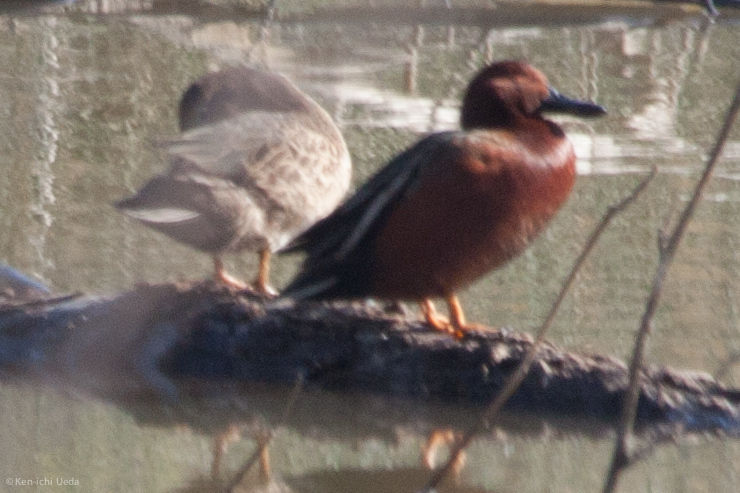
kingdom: Animalia
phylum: Chordata
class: Aves
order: Anseriformes
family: Anatidae
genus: Spatula
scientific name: Spatula cyanoptera
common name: Cinnamon teal
